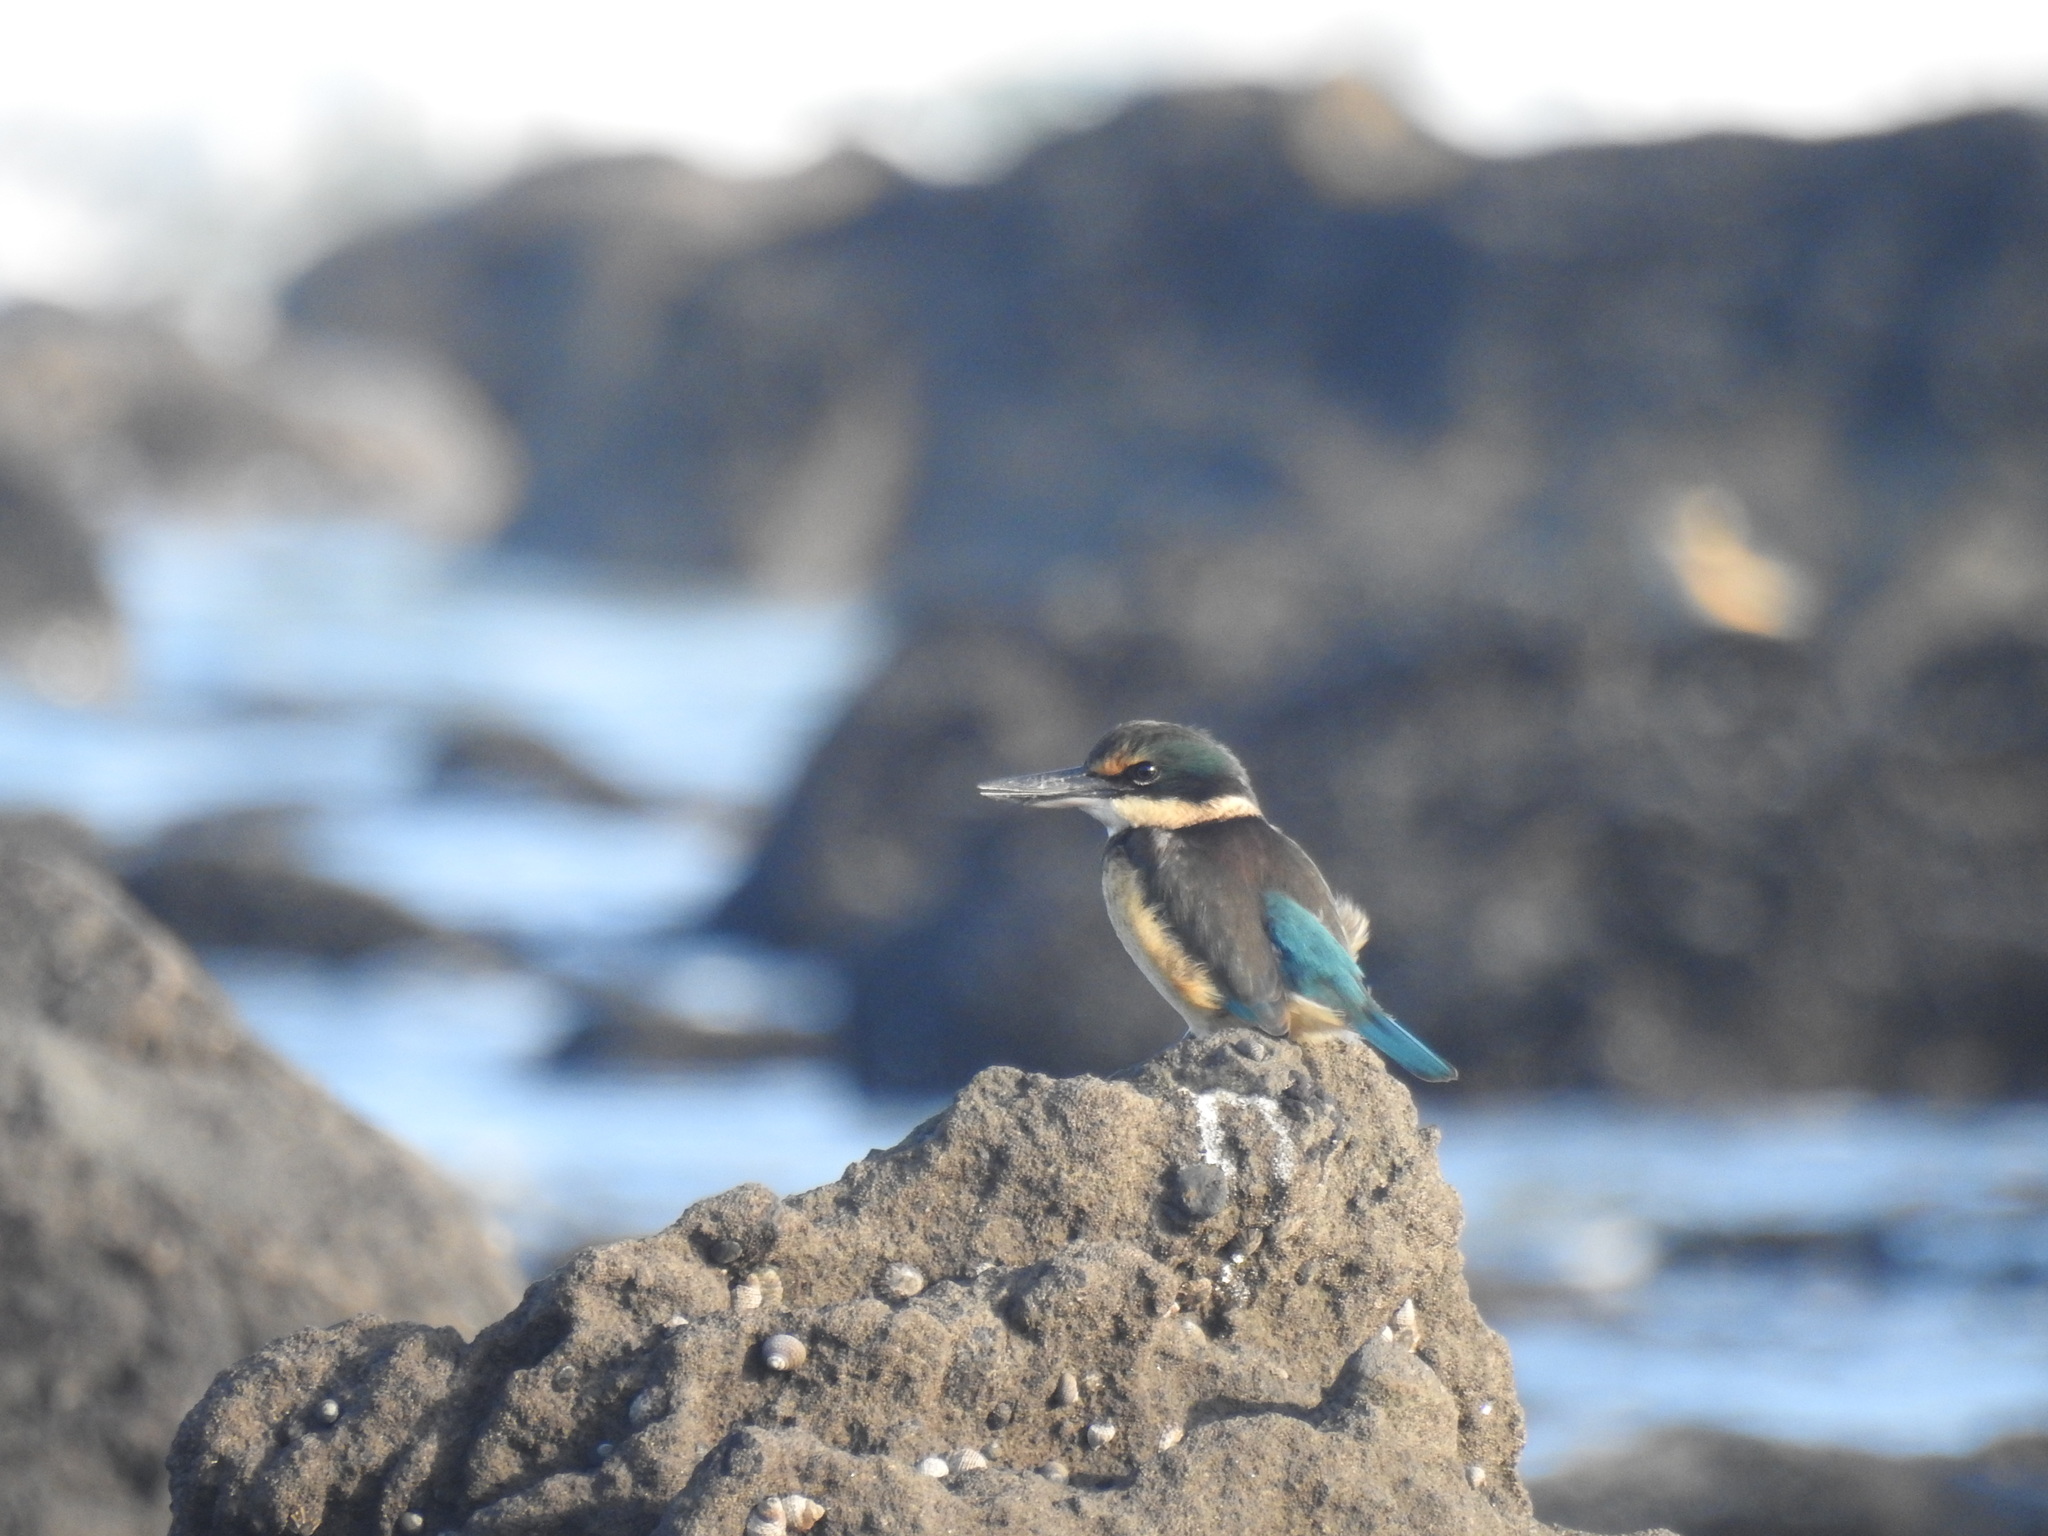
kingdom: Animalia
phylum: Chordata
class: Aves
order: Coraciiformes
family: Alcedinidae
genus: Todiramphus
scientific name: Todiramphus sanctus
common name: Sacred kingfisher
